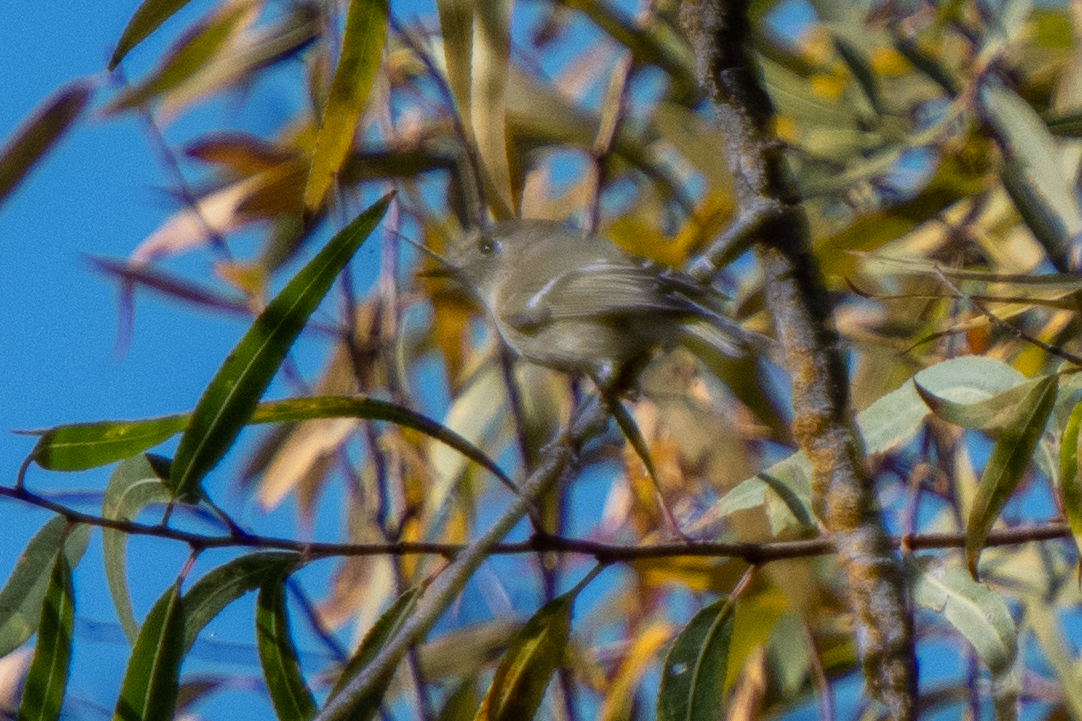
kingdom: Animalia
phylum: Chordata
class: Aves
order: Passeriformes
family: Regulidae
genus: Regulus
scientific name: Regulus calendula
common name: Ruby-crowned kinglet
